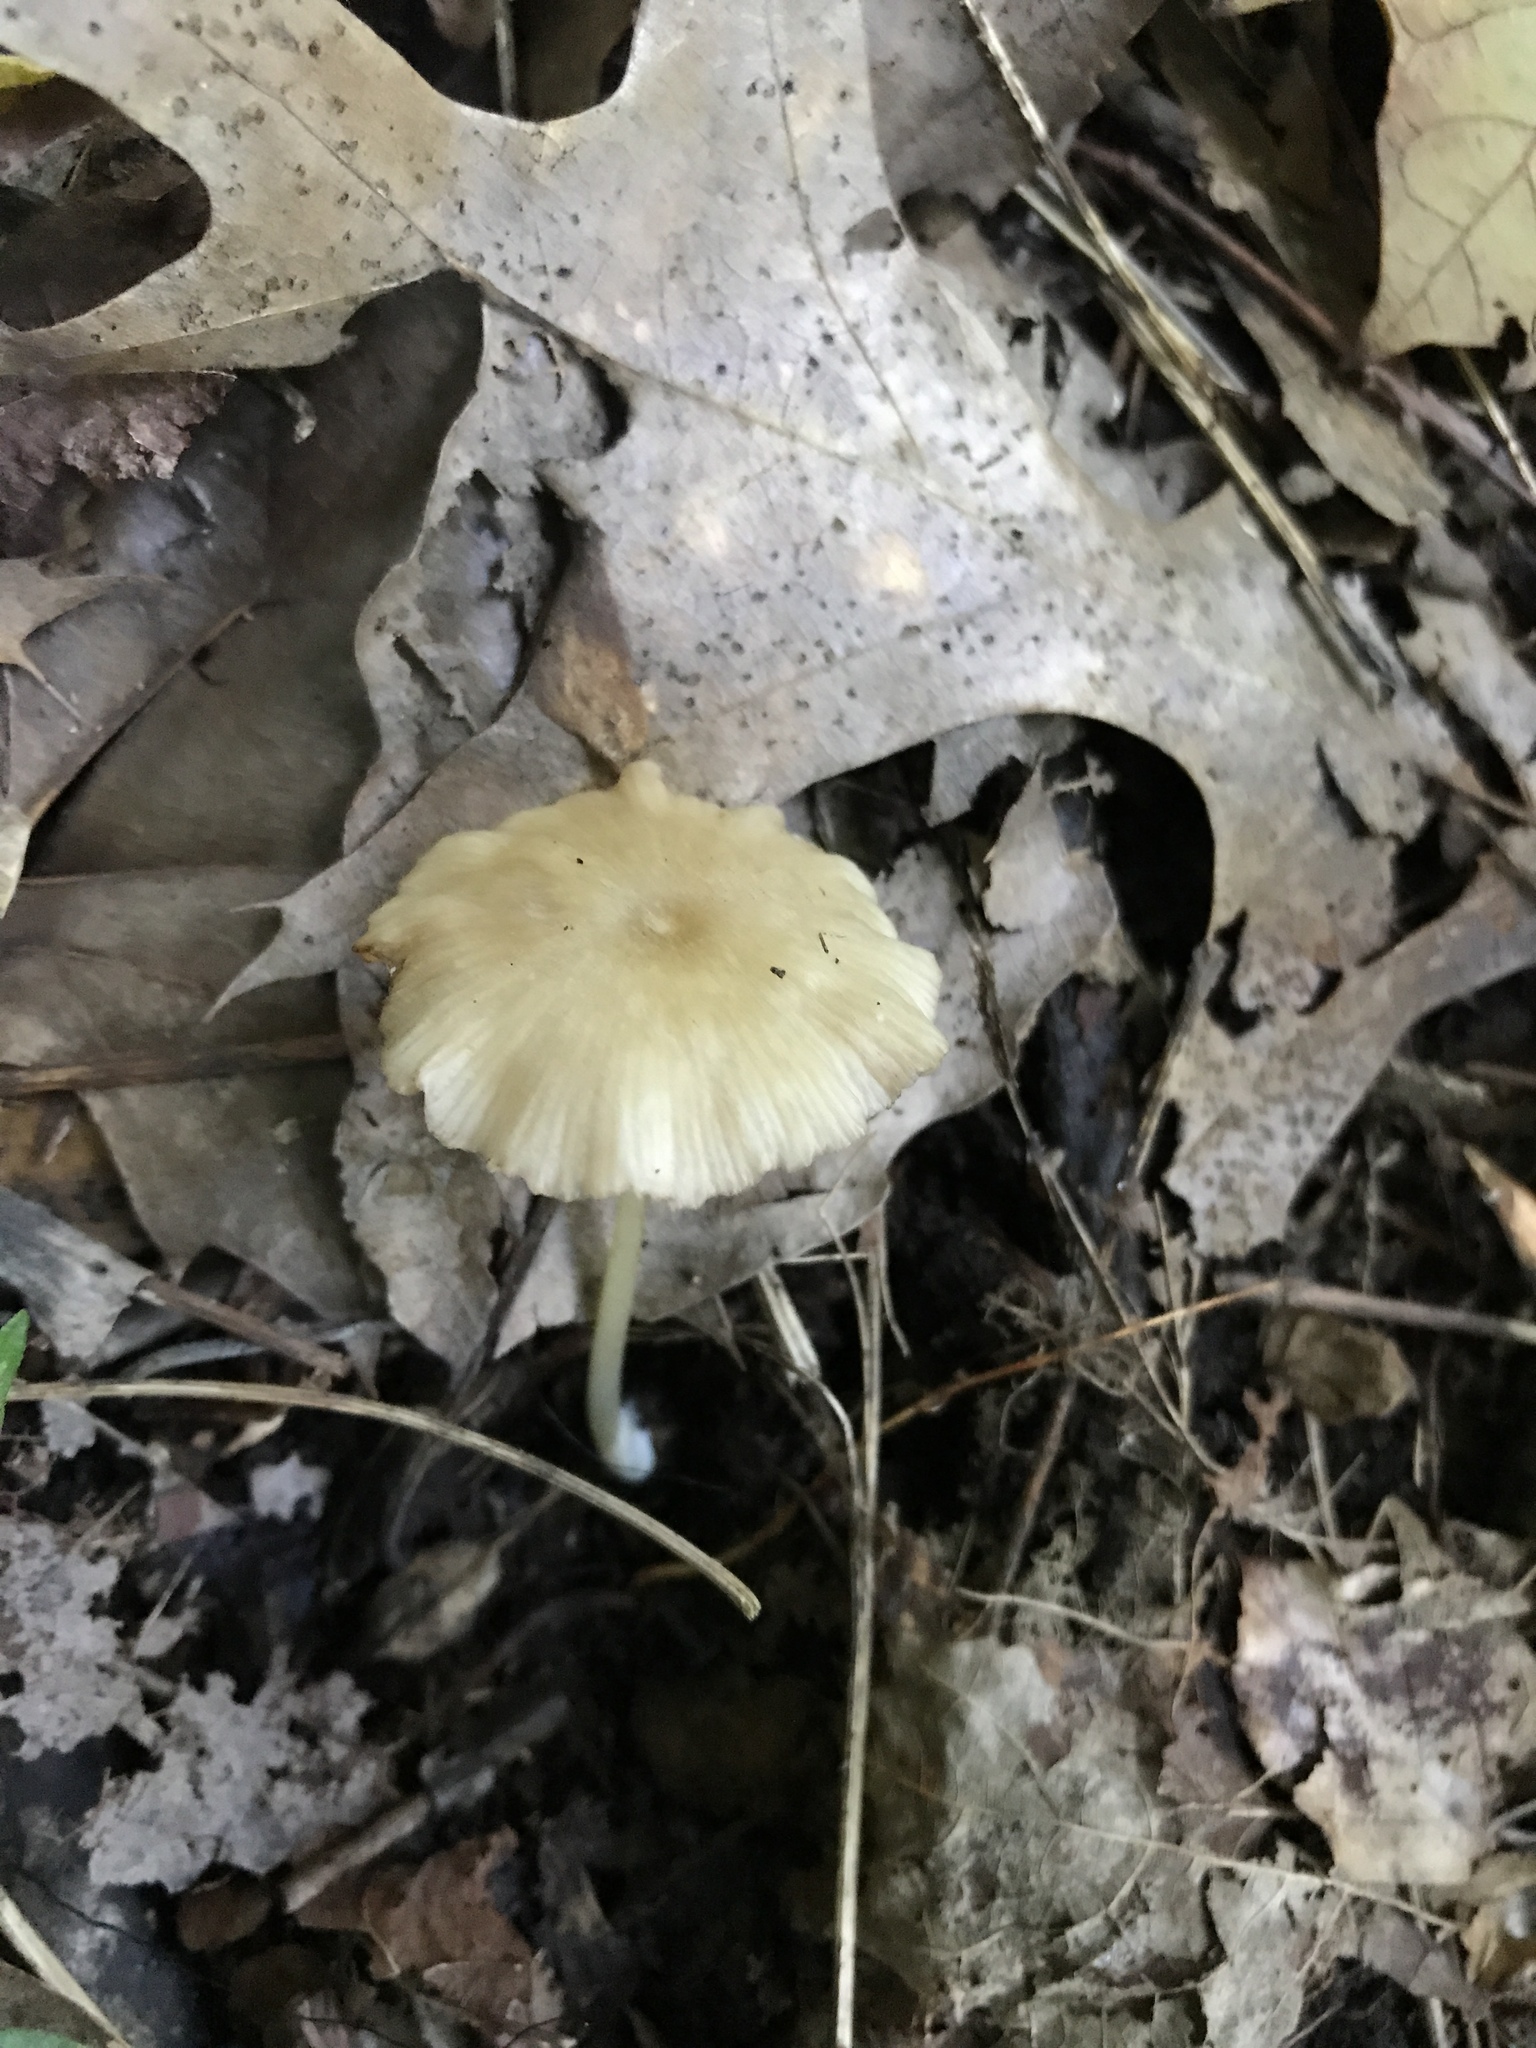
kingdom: Fungi
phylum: Basidiomycota
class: Agaricomycetes
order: Agaricales
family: Entolomataceae
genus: Entoloma
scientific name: Entoloma subserrulatum
